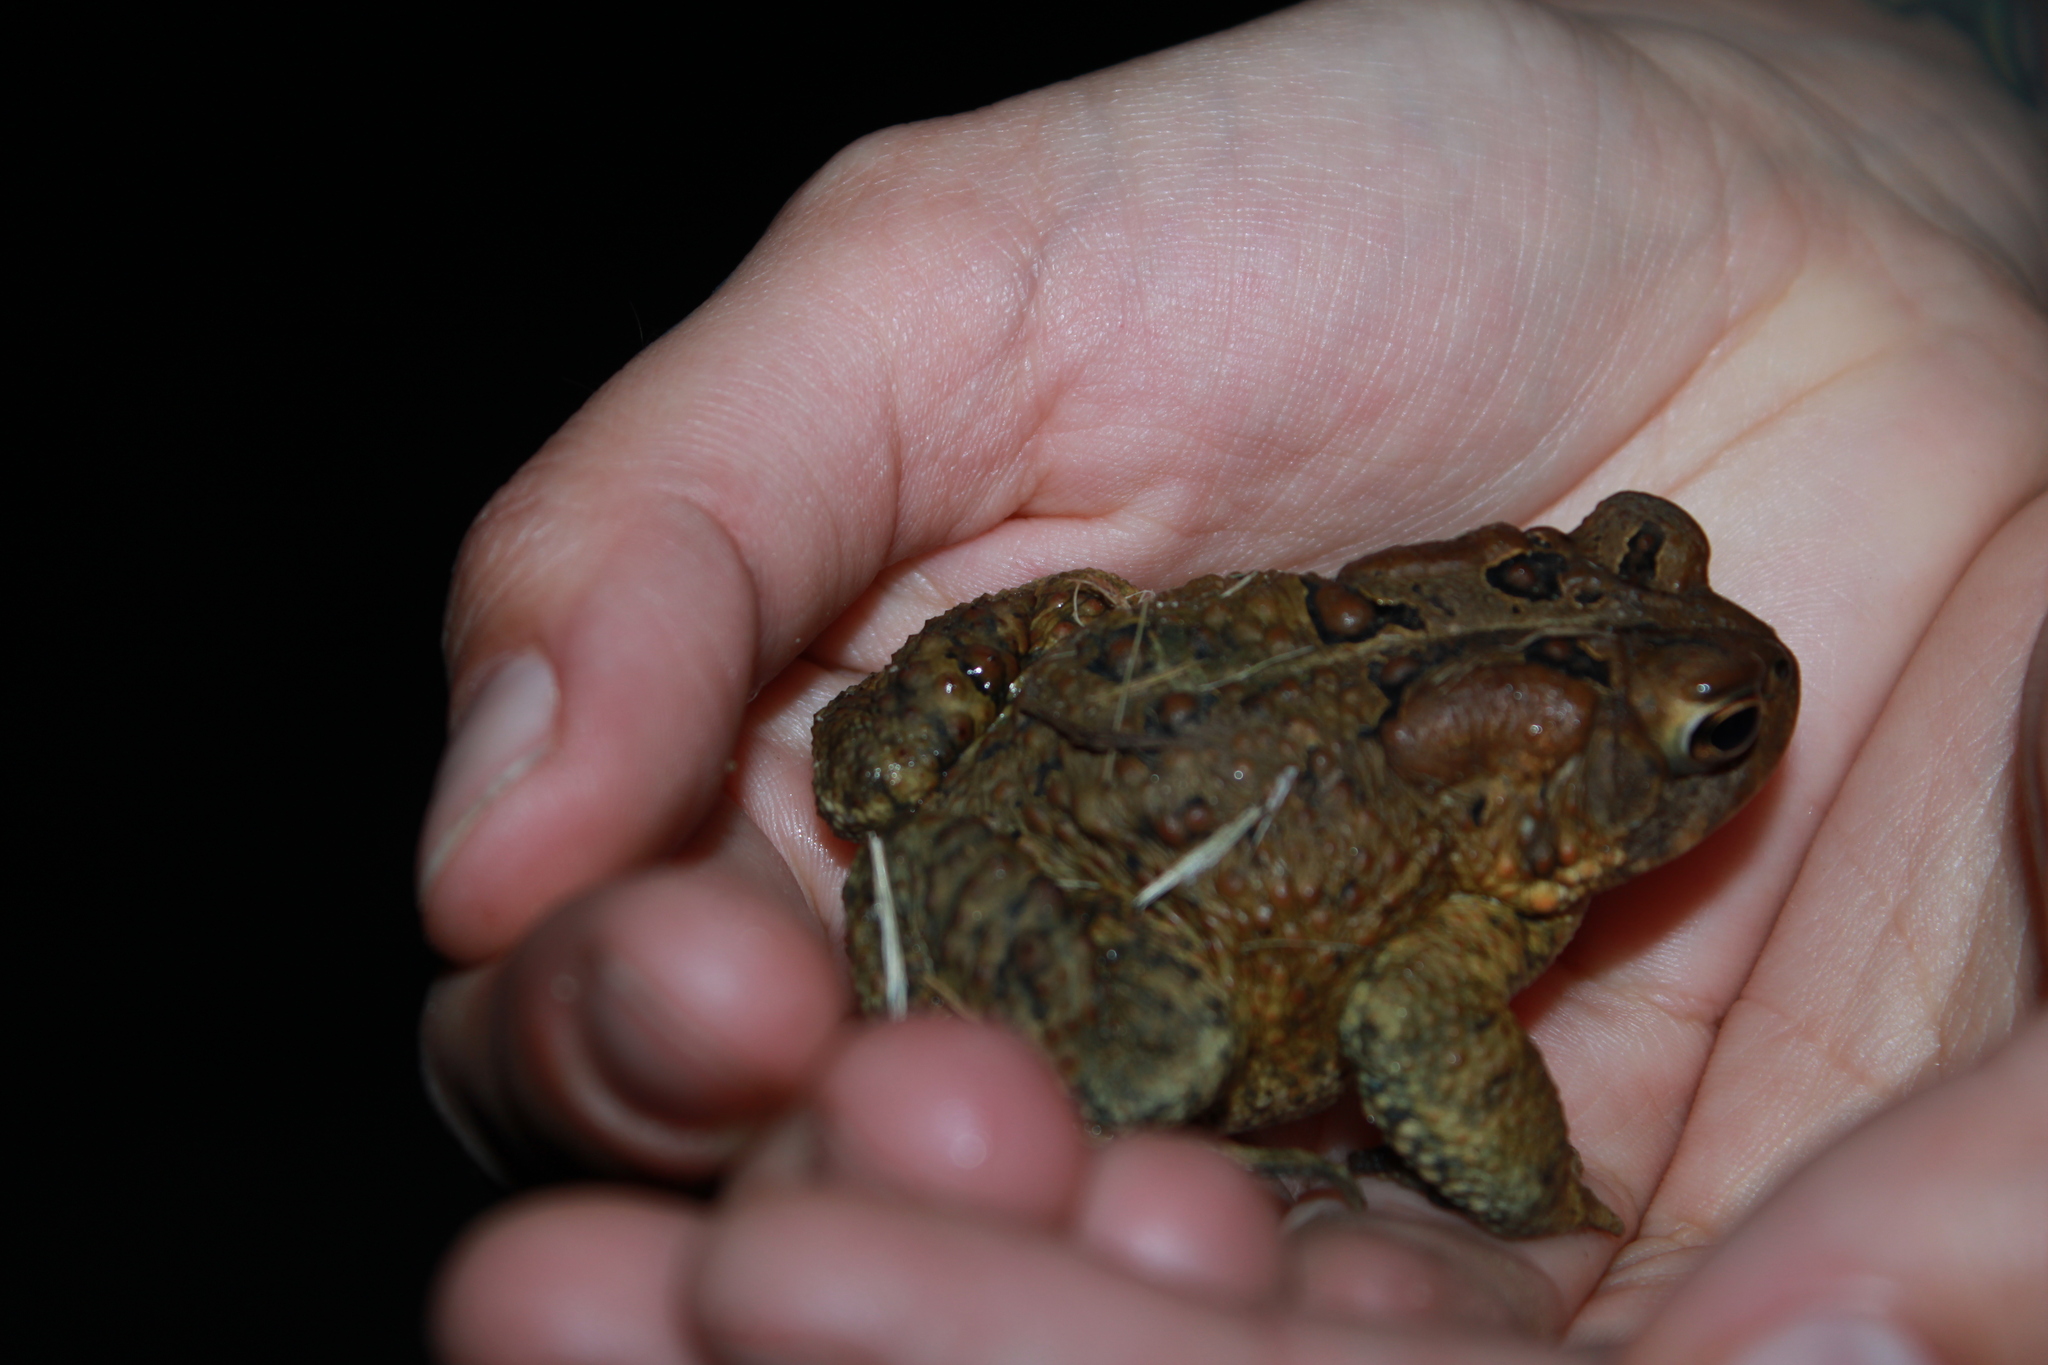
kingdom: Animalia
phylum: Chordata
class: Amphibia
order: Anura
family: Bufonidae
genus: Anaxyrus
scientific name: Anaxyrus americanus
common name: American toad
